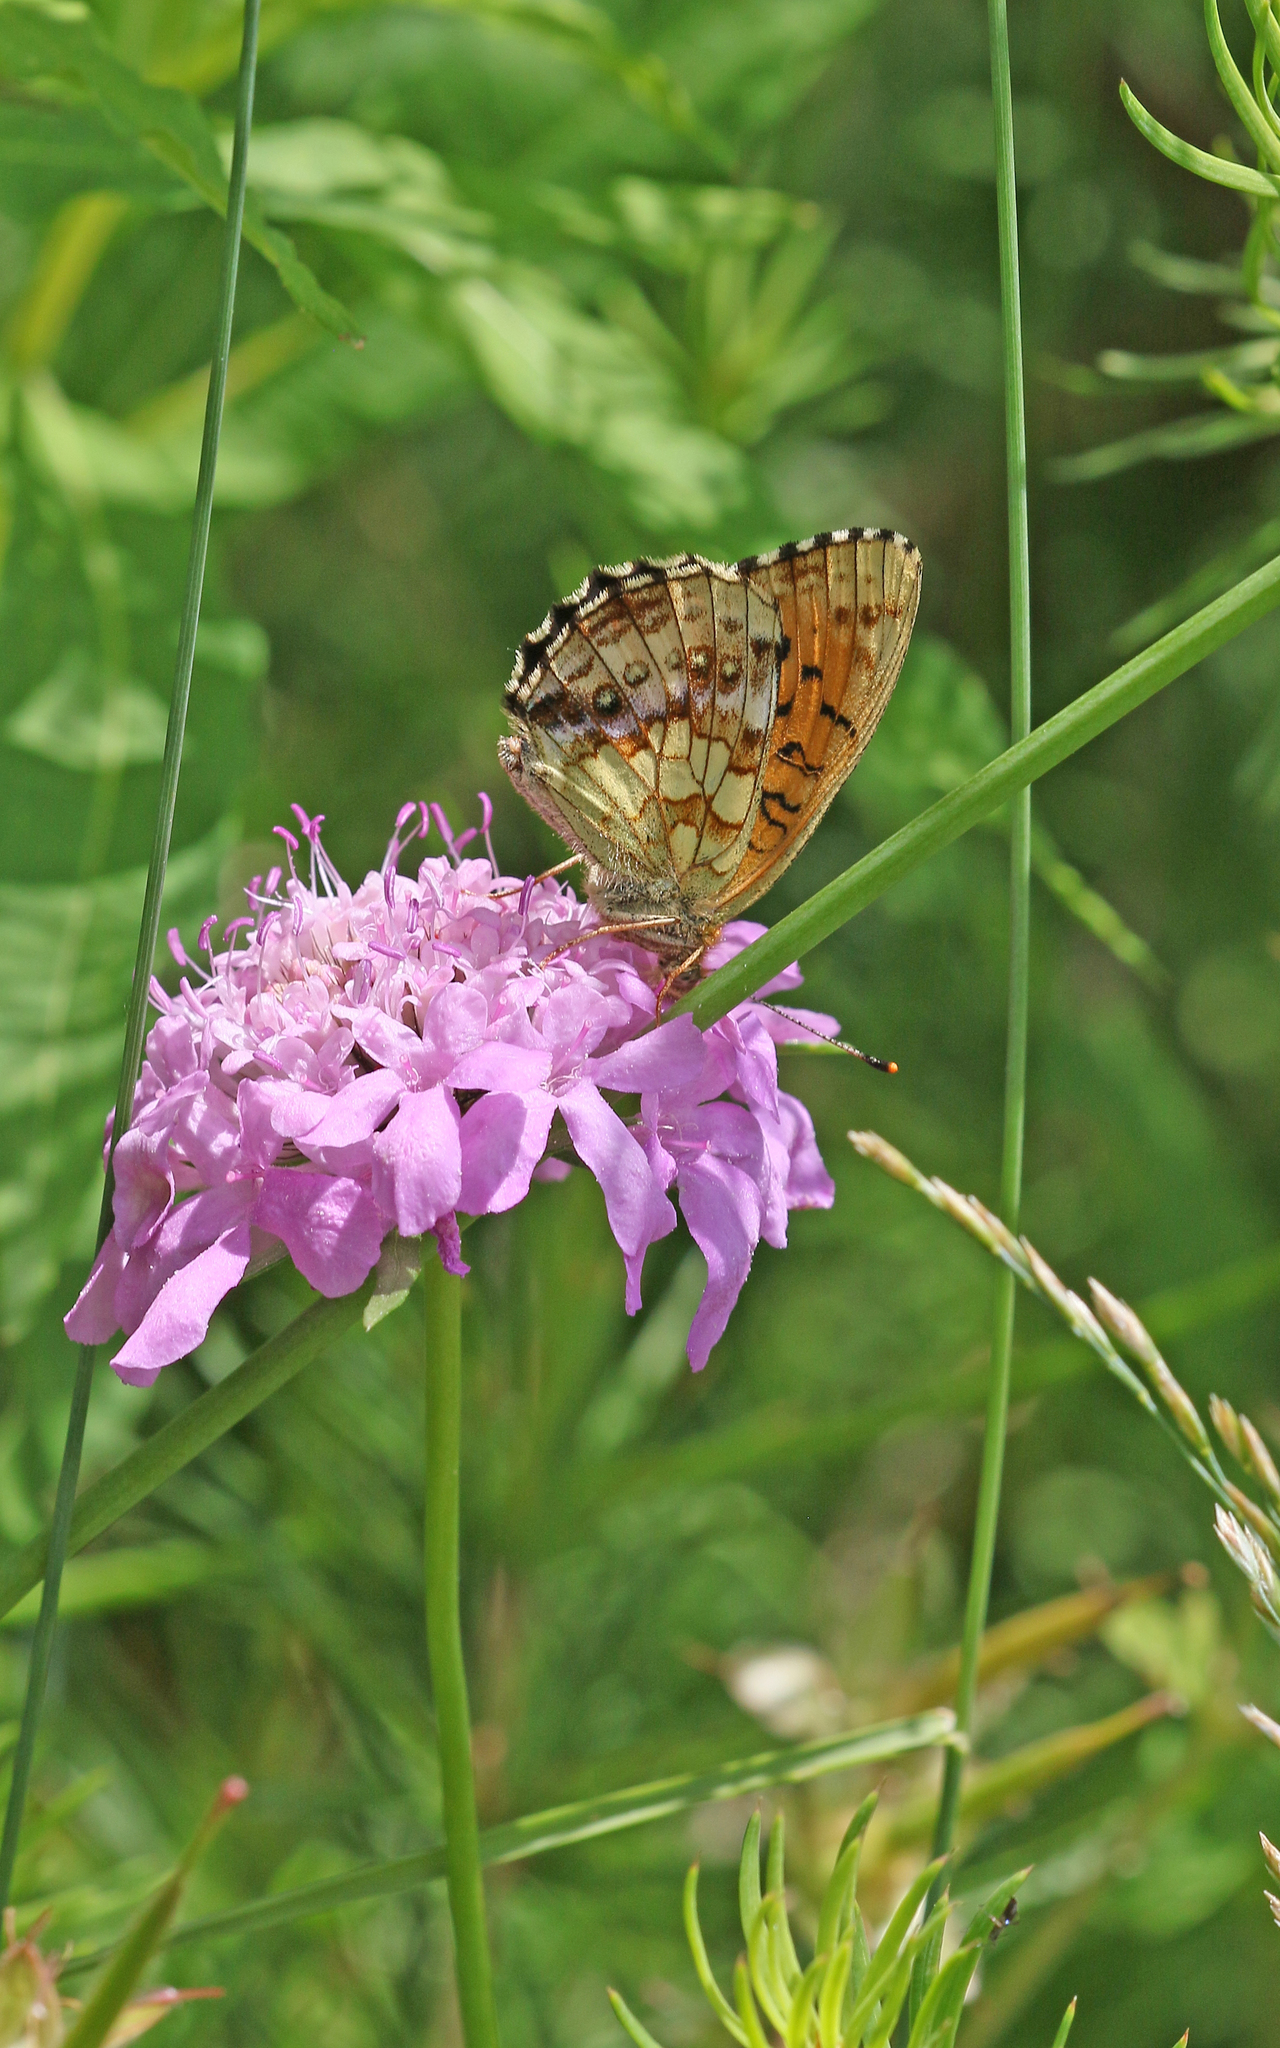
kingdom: Animalia
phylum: Arthropoda
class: Insecta
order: Lepidoptera
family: Nymphalidae
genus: Brenthis
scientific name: Brenthis ino
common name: Lesser marbled fritillary
